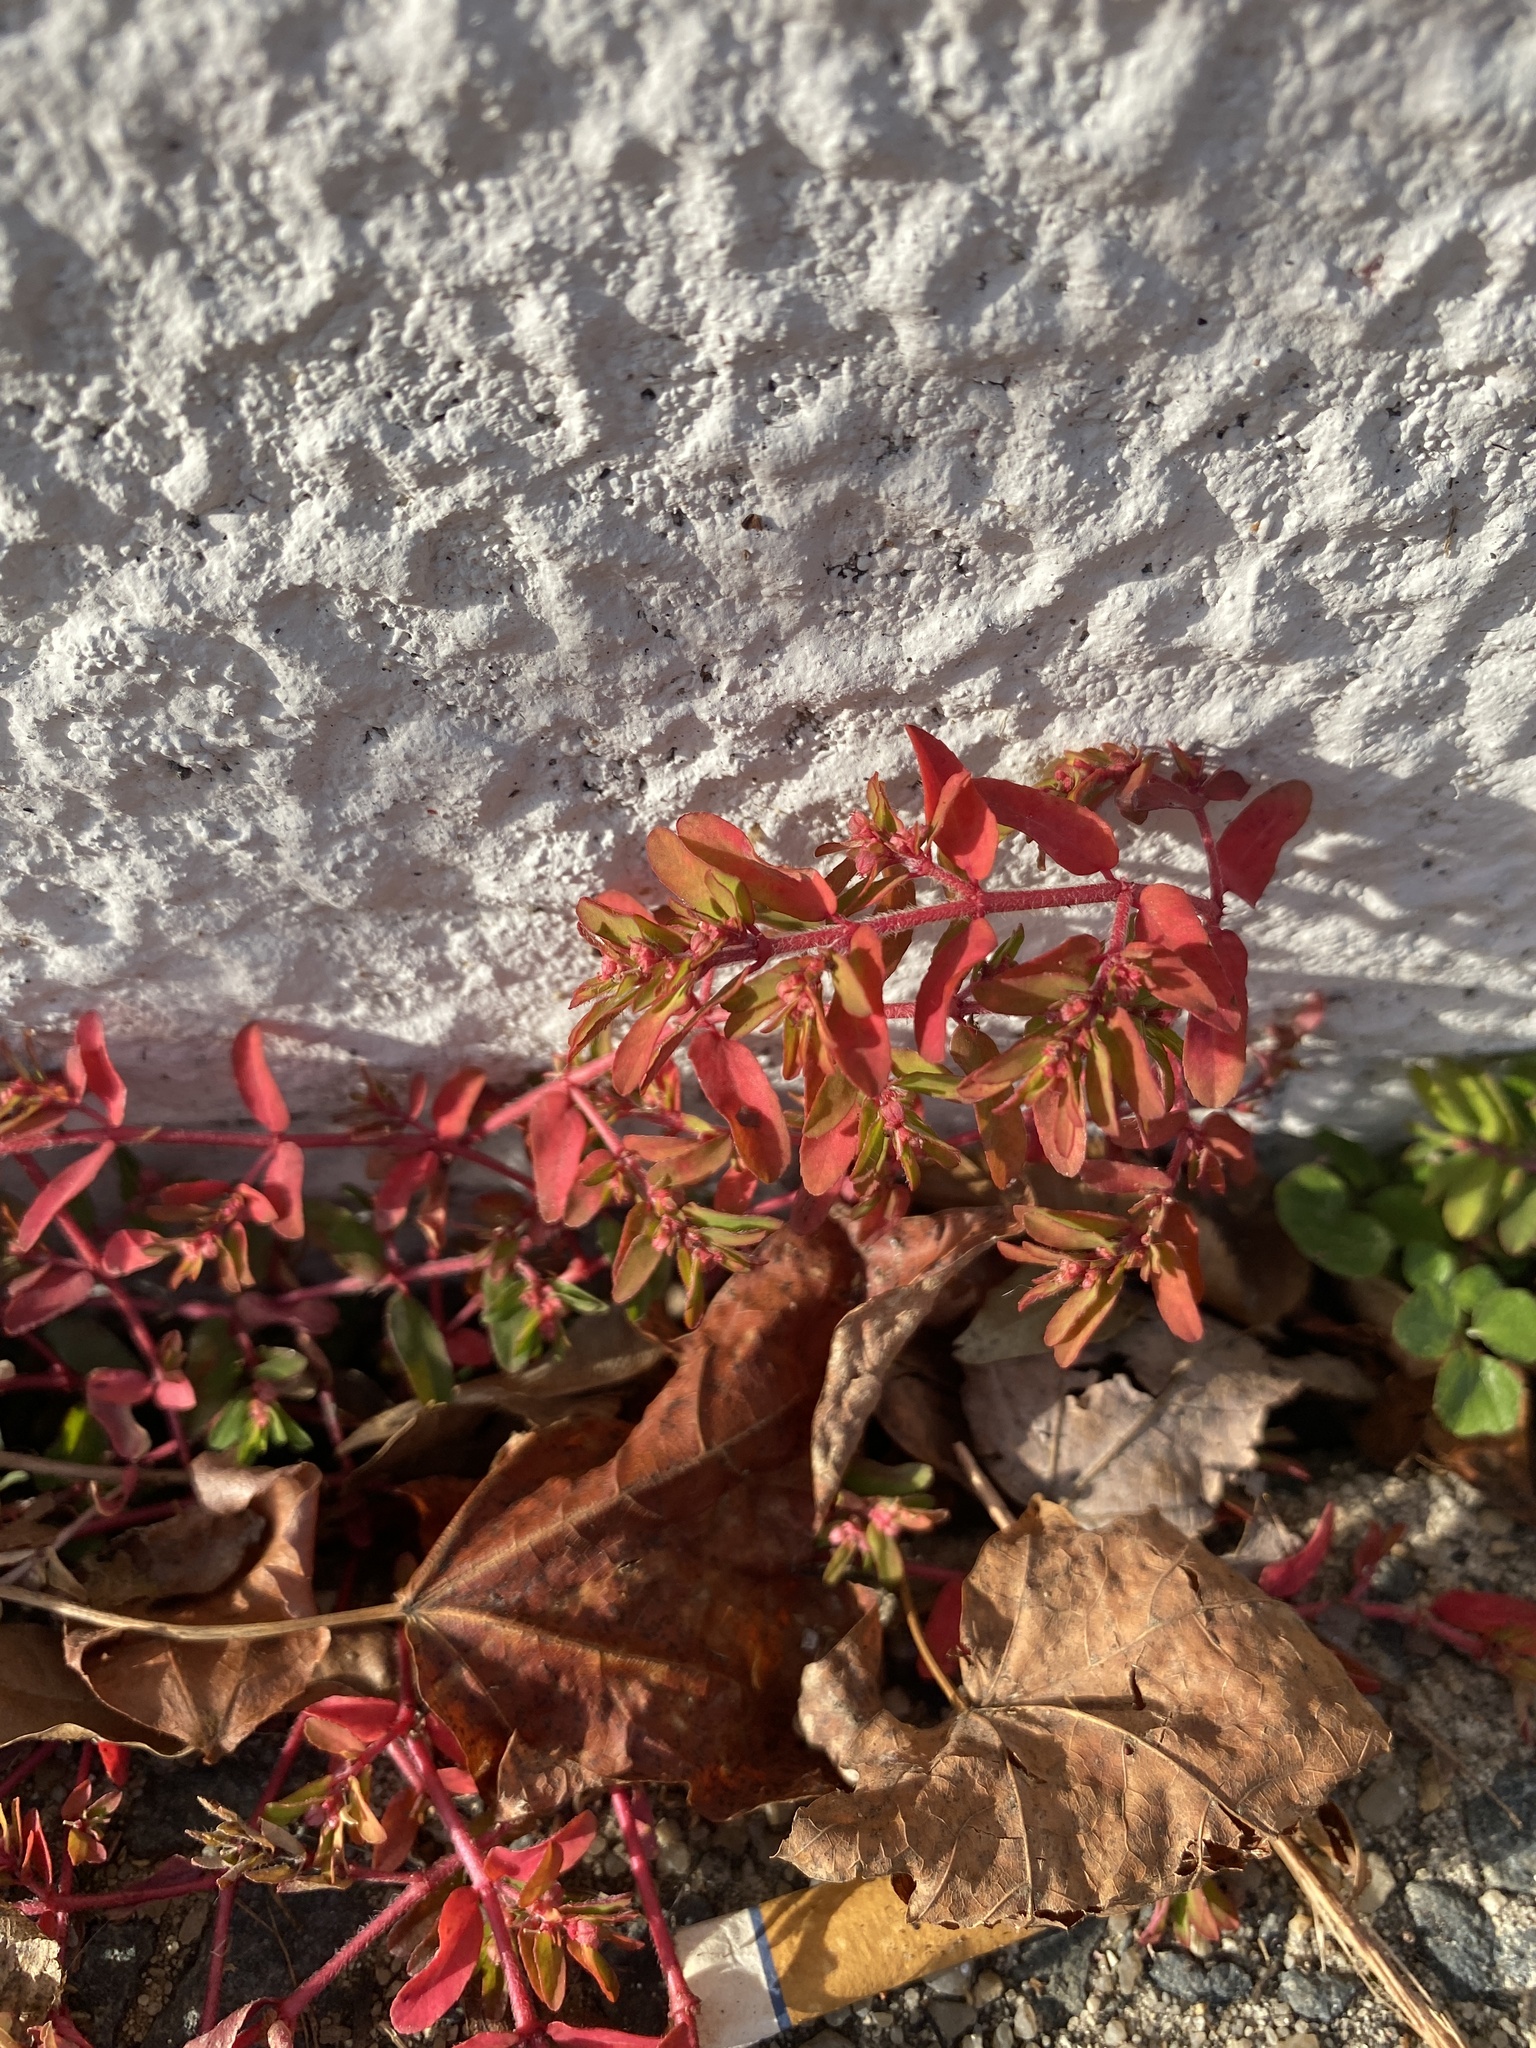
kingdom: Plantae
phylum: Tracheophyta
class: Magnoliopsida
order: Malpighiales
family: Euphorbiaceae
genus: Euphorbia
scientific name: Euphorbia maculata
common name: Spotted spurge
